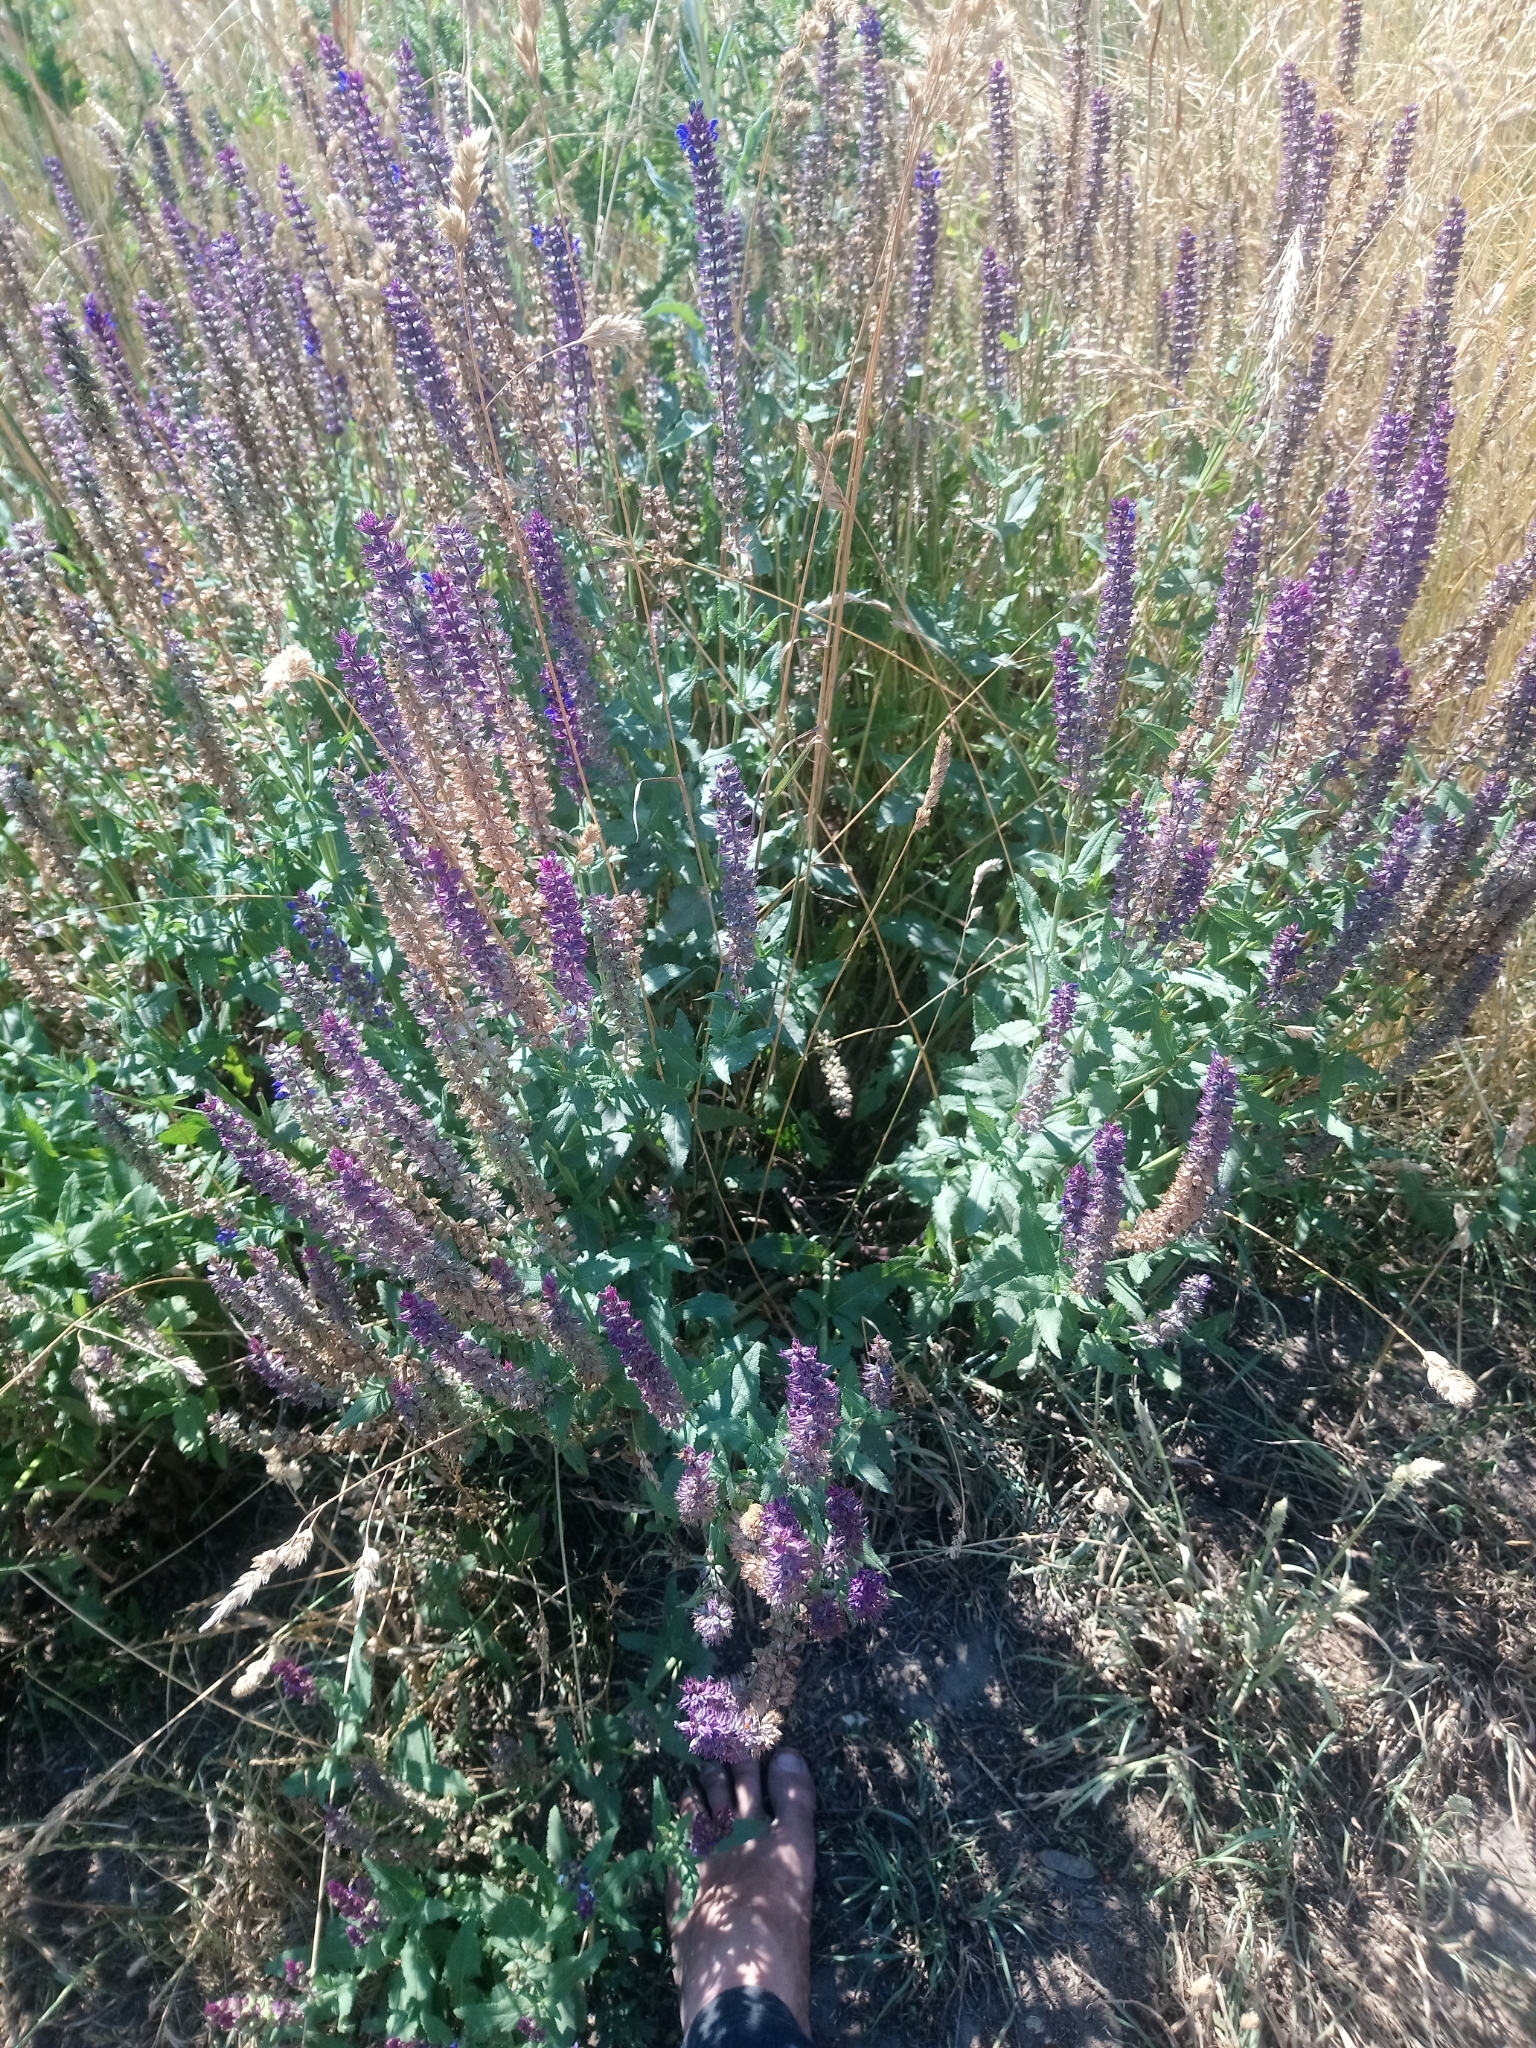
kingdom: Plantae
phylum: Tracheophyta
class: Magnoliopsida
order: Lamiales
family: Lamiaceae
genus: Salvia
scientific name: Salvia nemorosa
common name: Balkan clary
